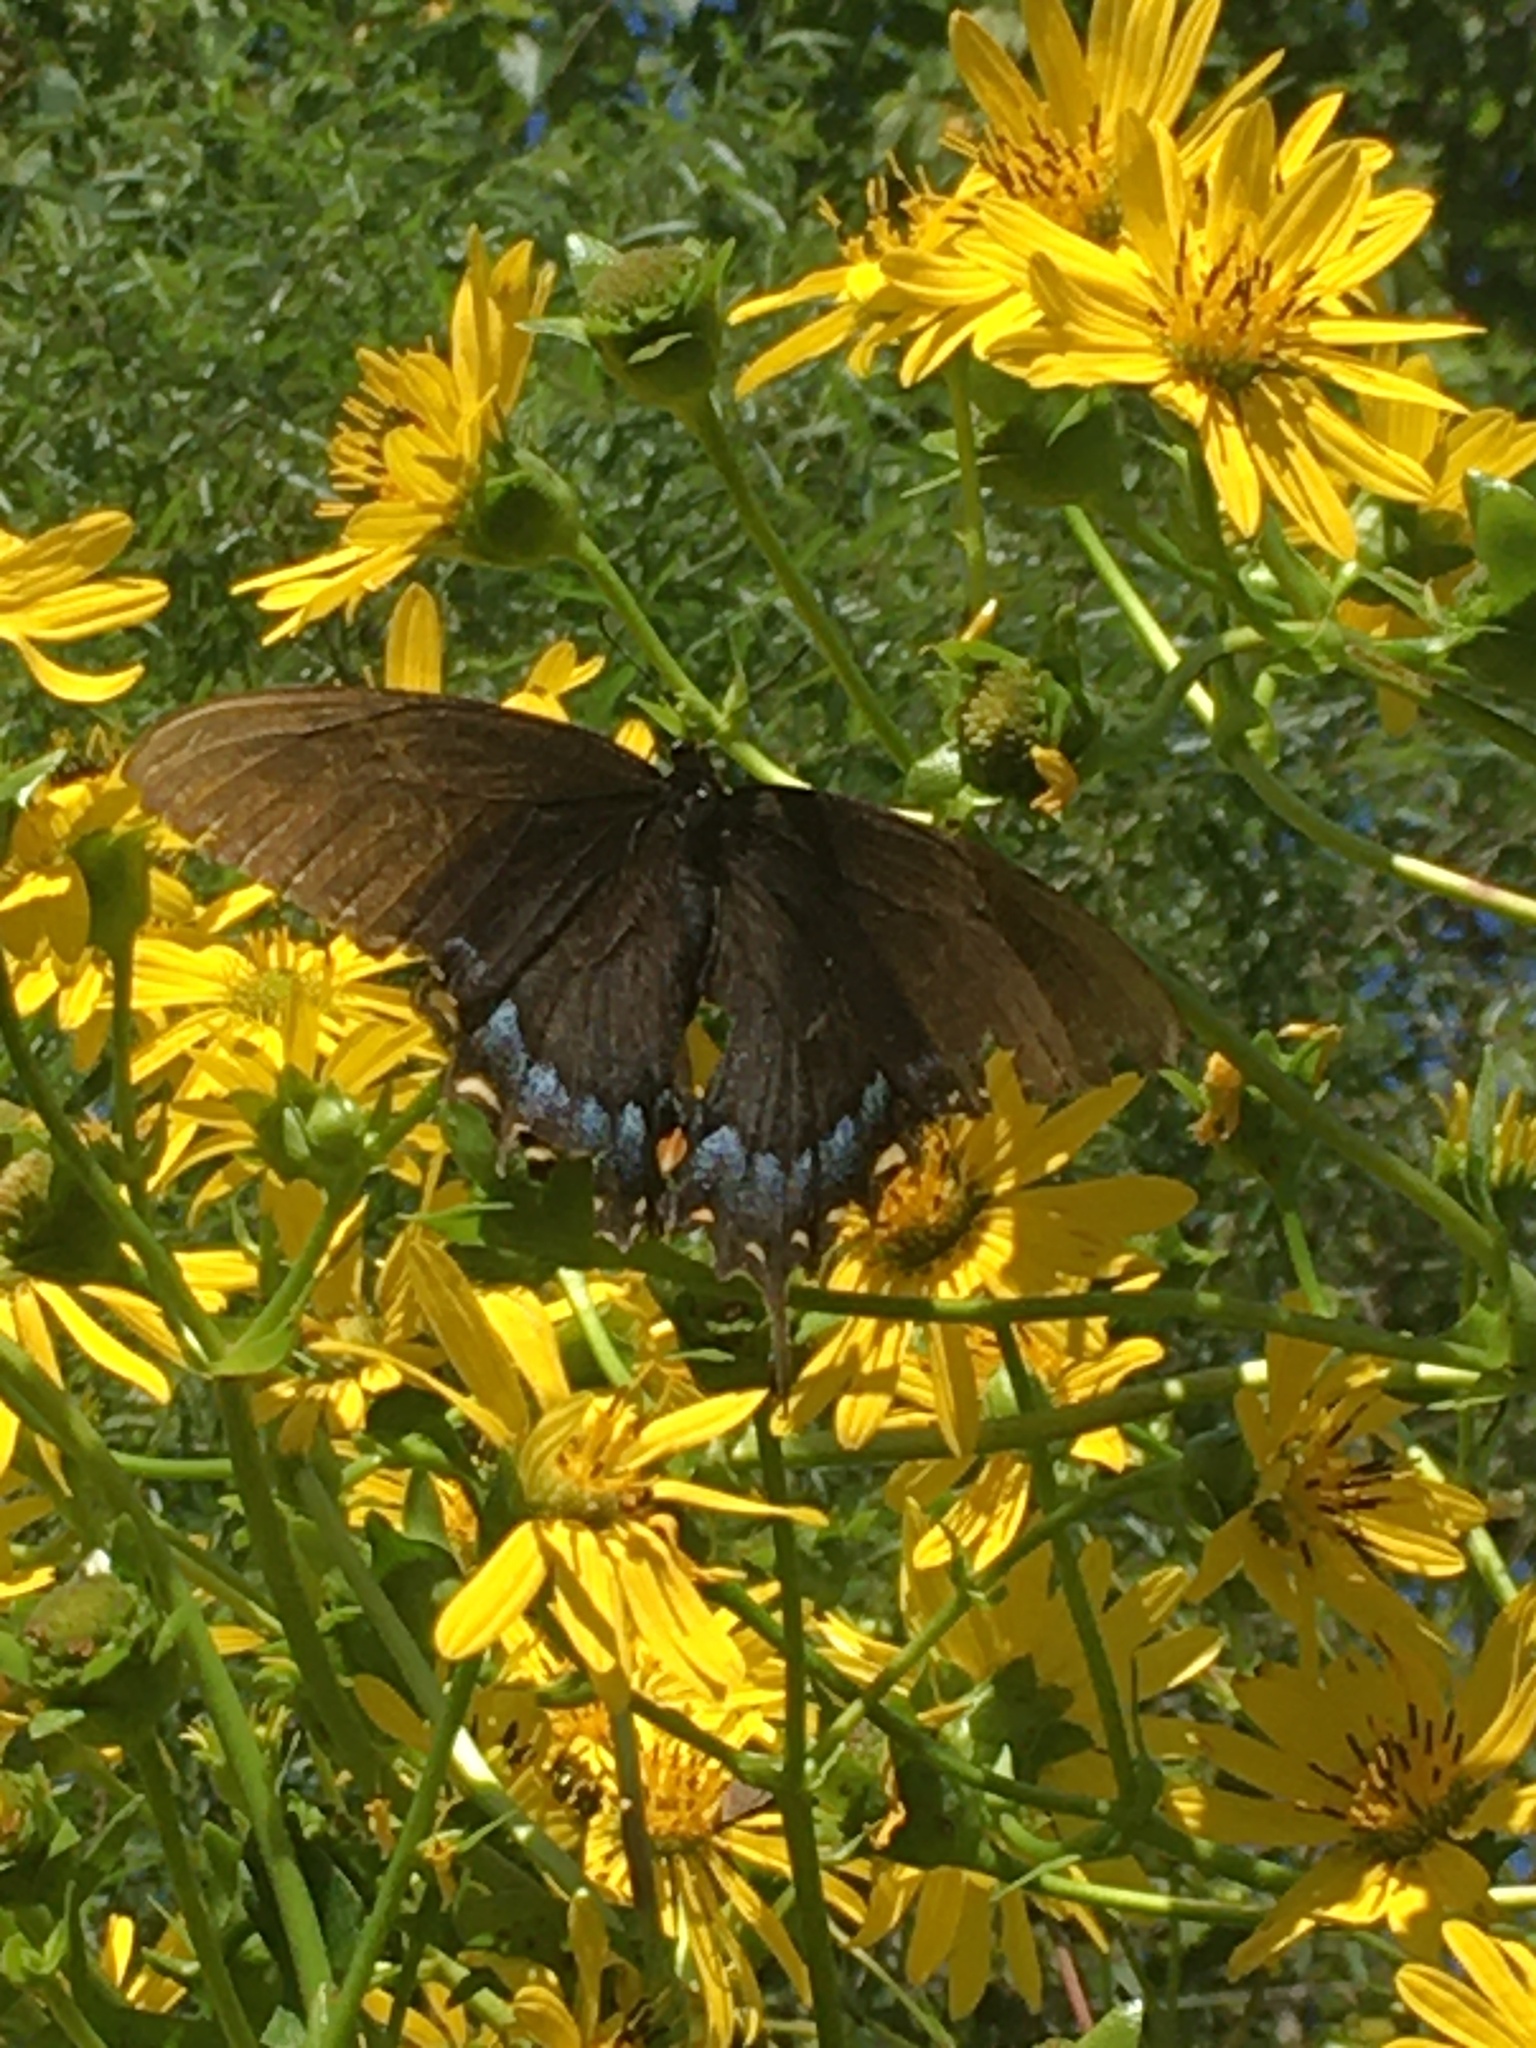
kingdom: Animalia
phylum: Arthropoda
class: Insecta
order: Lepidoptera
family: Papilionidae
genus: Papilio
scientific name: Papilio glaucus
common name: Tiger swallowtail
